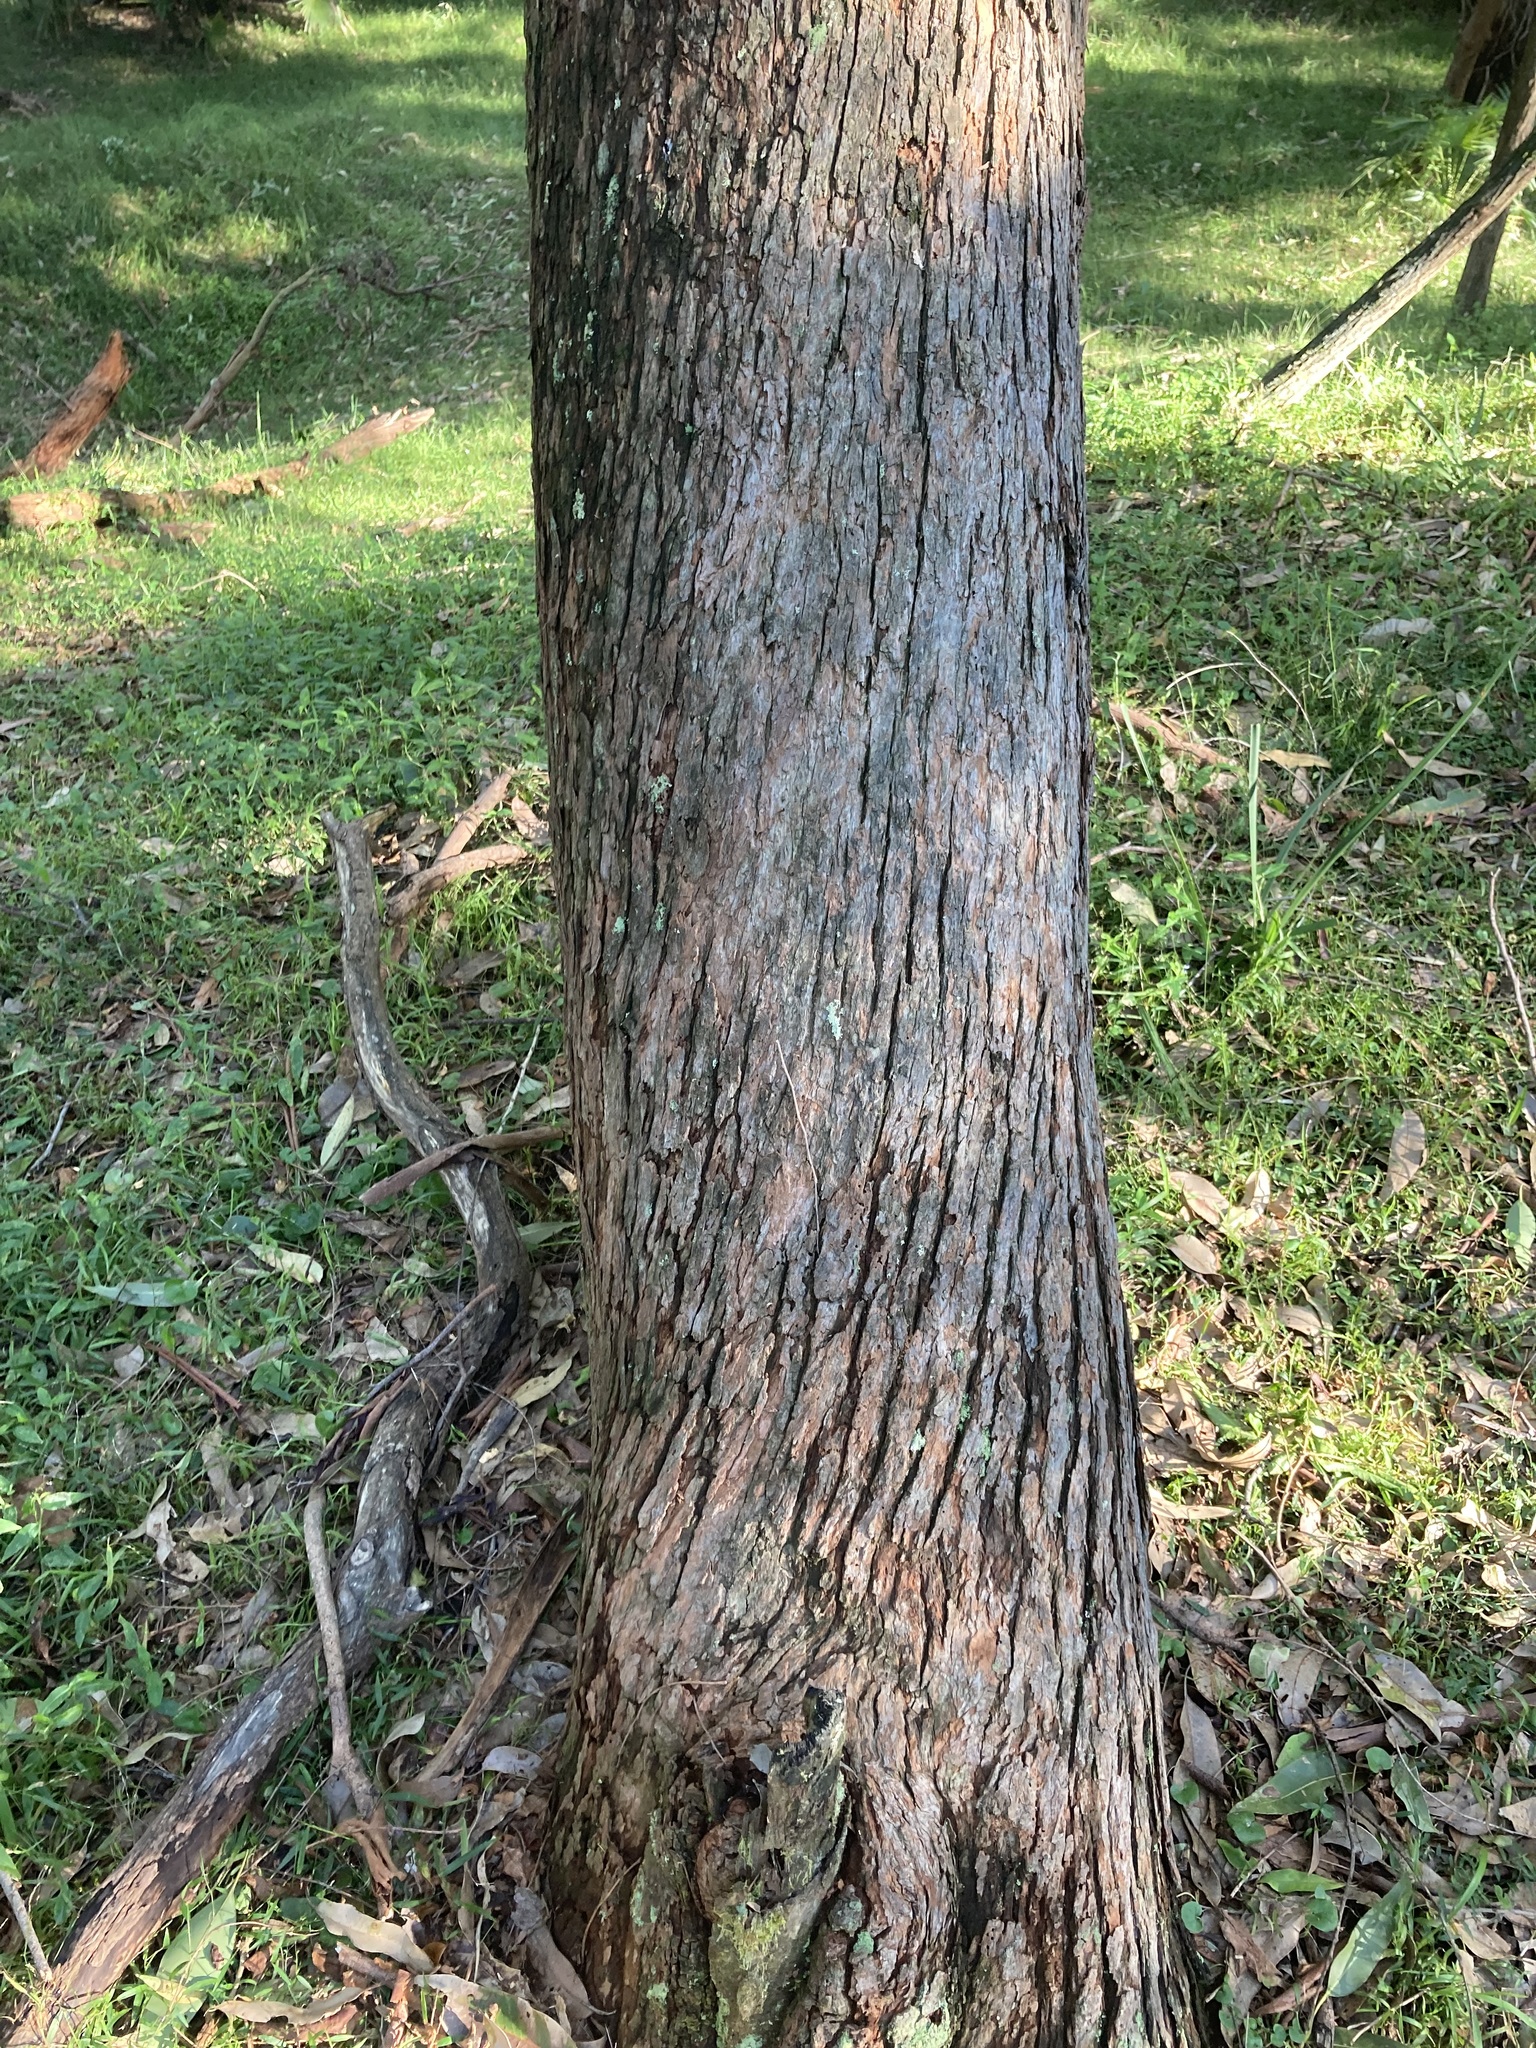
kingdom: Plantae
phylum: Tracheophyta
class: Magnoliopsida
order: Myrtales
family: Myrtaceae
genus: Eucalyptus
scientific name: Eucalyptus botryoides
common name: Bangalay
